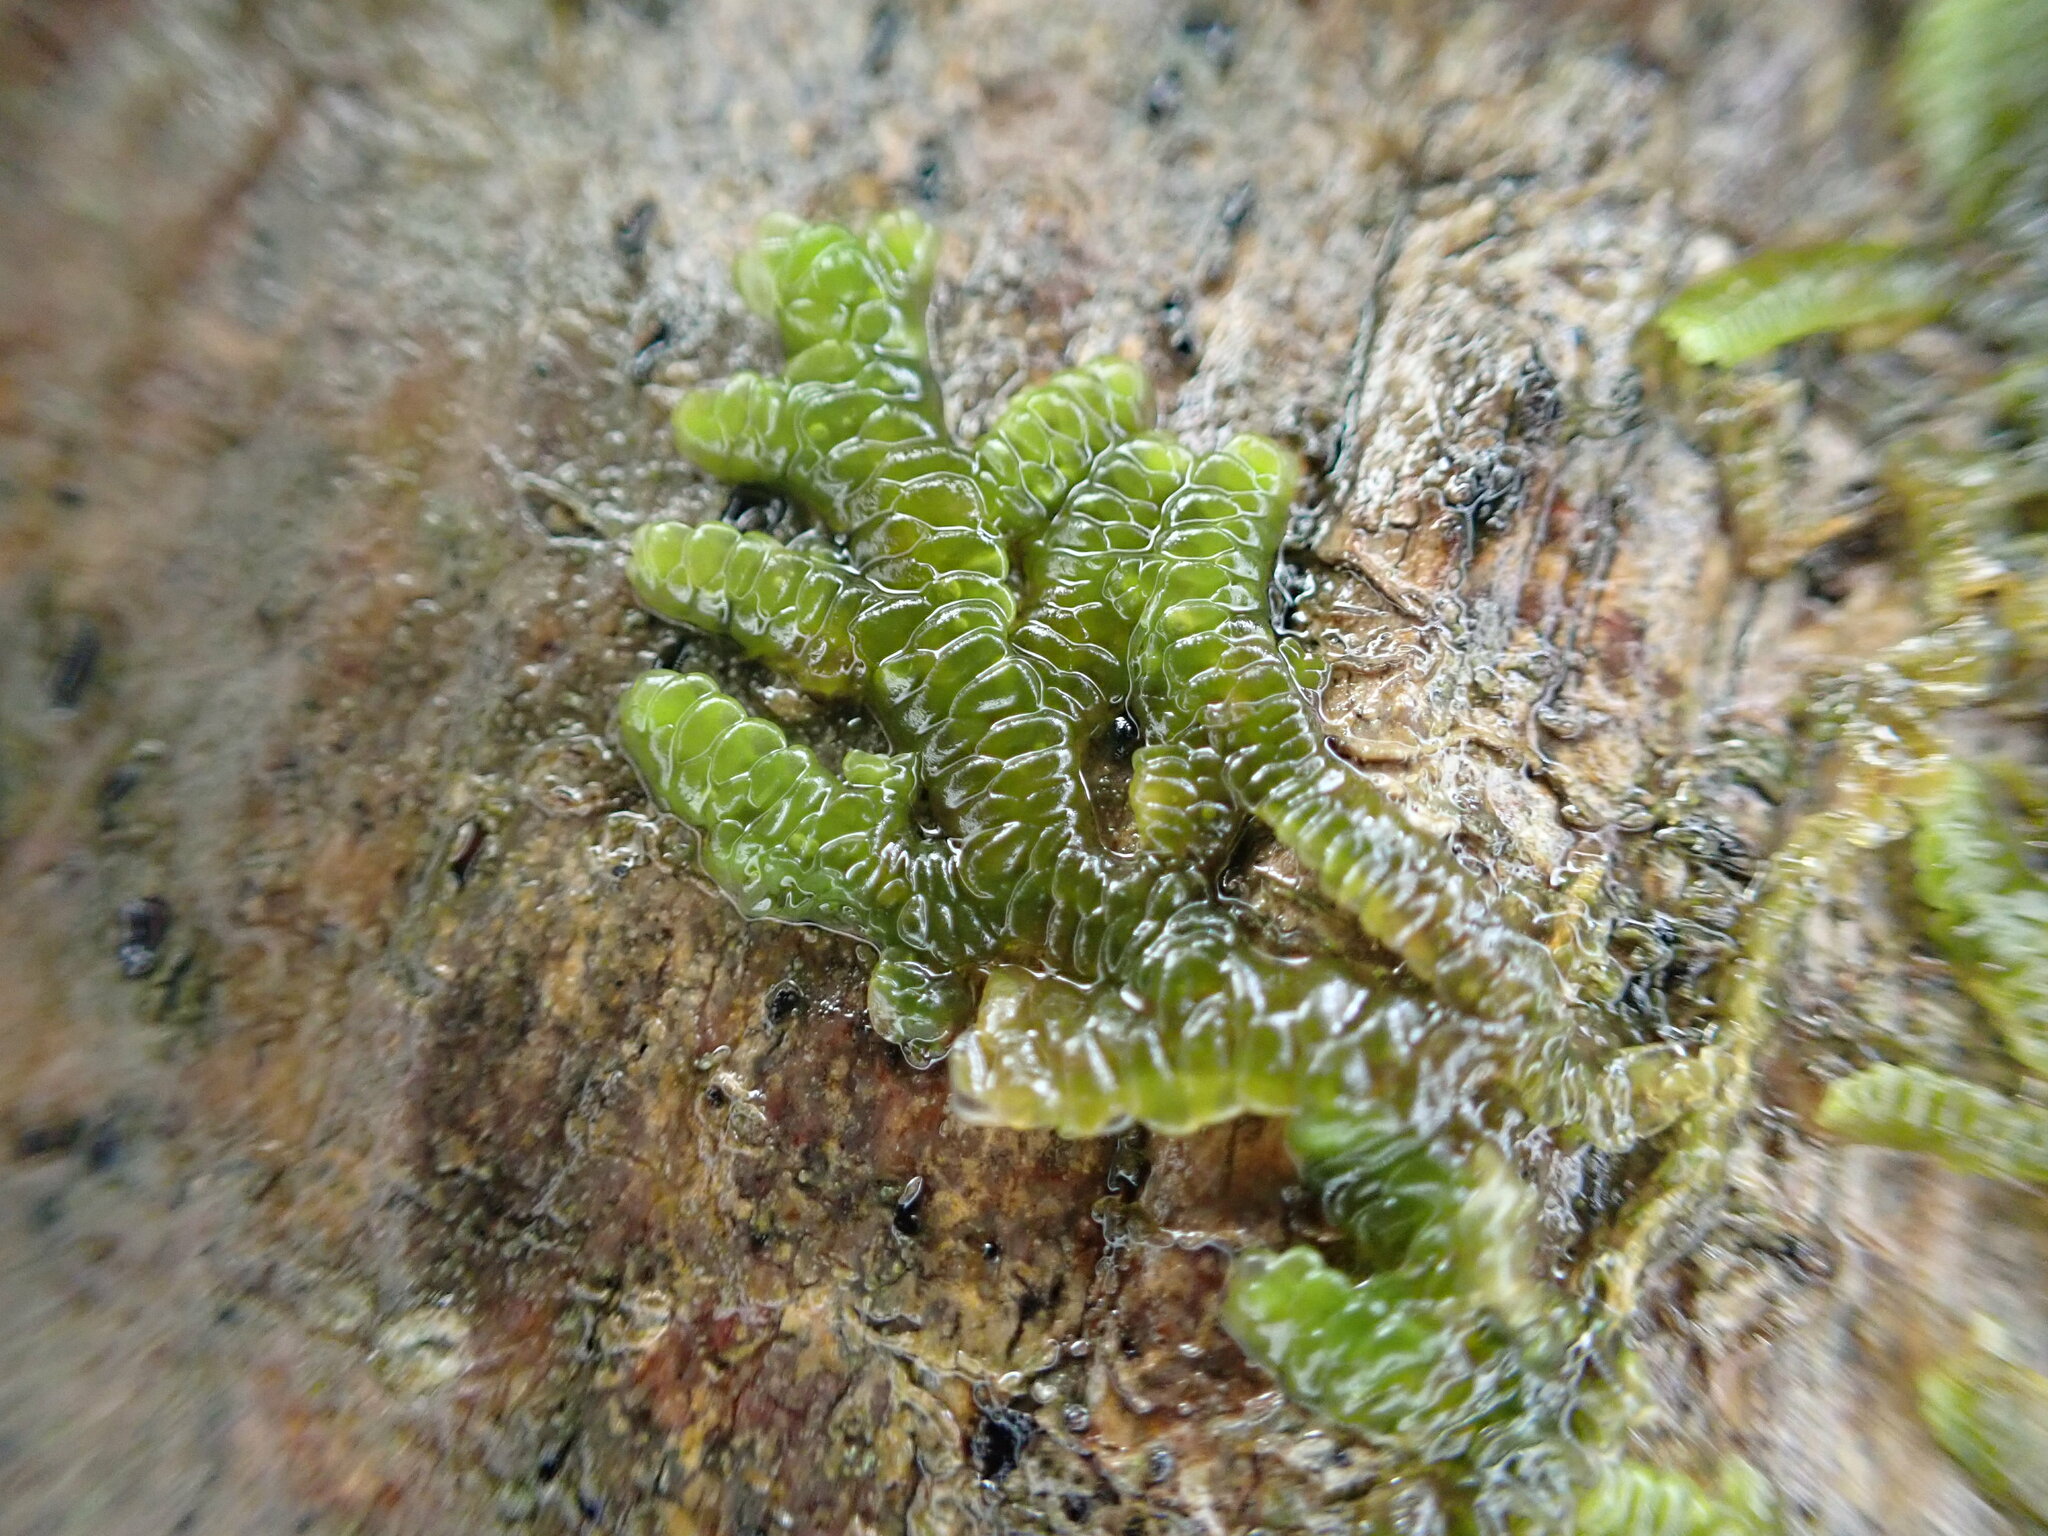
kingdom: Plantae
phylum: Marchantiophyta
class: Jungermanniopsida
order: Porellales
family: Porellaceae
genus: Porella
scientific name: Porella navicularis
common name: Tree ruffle liverwort
